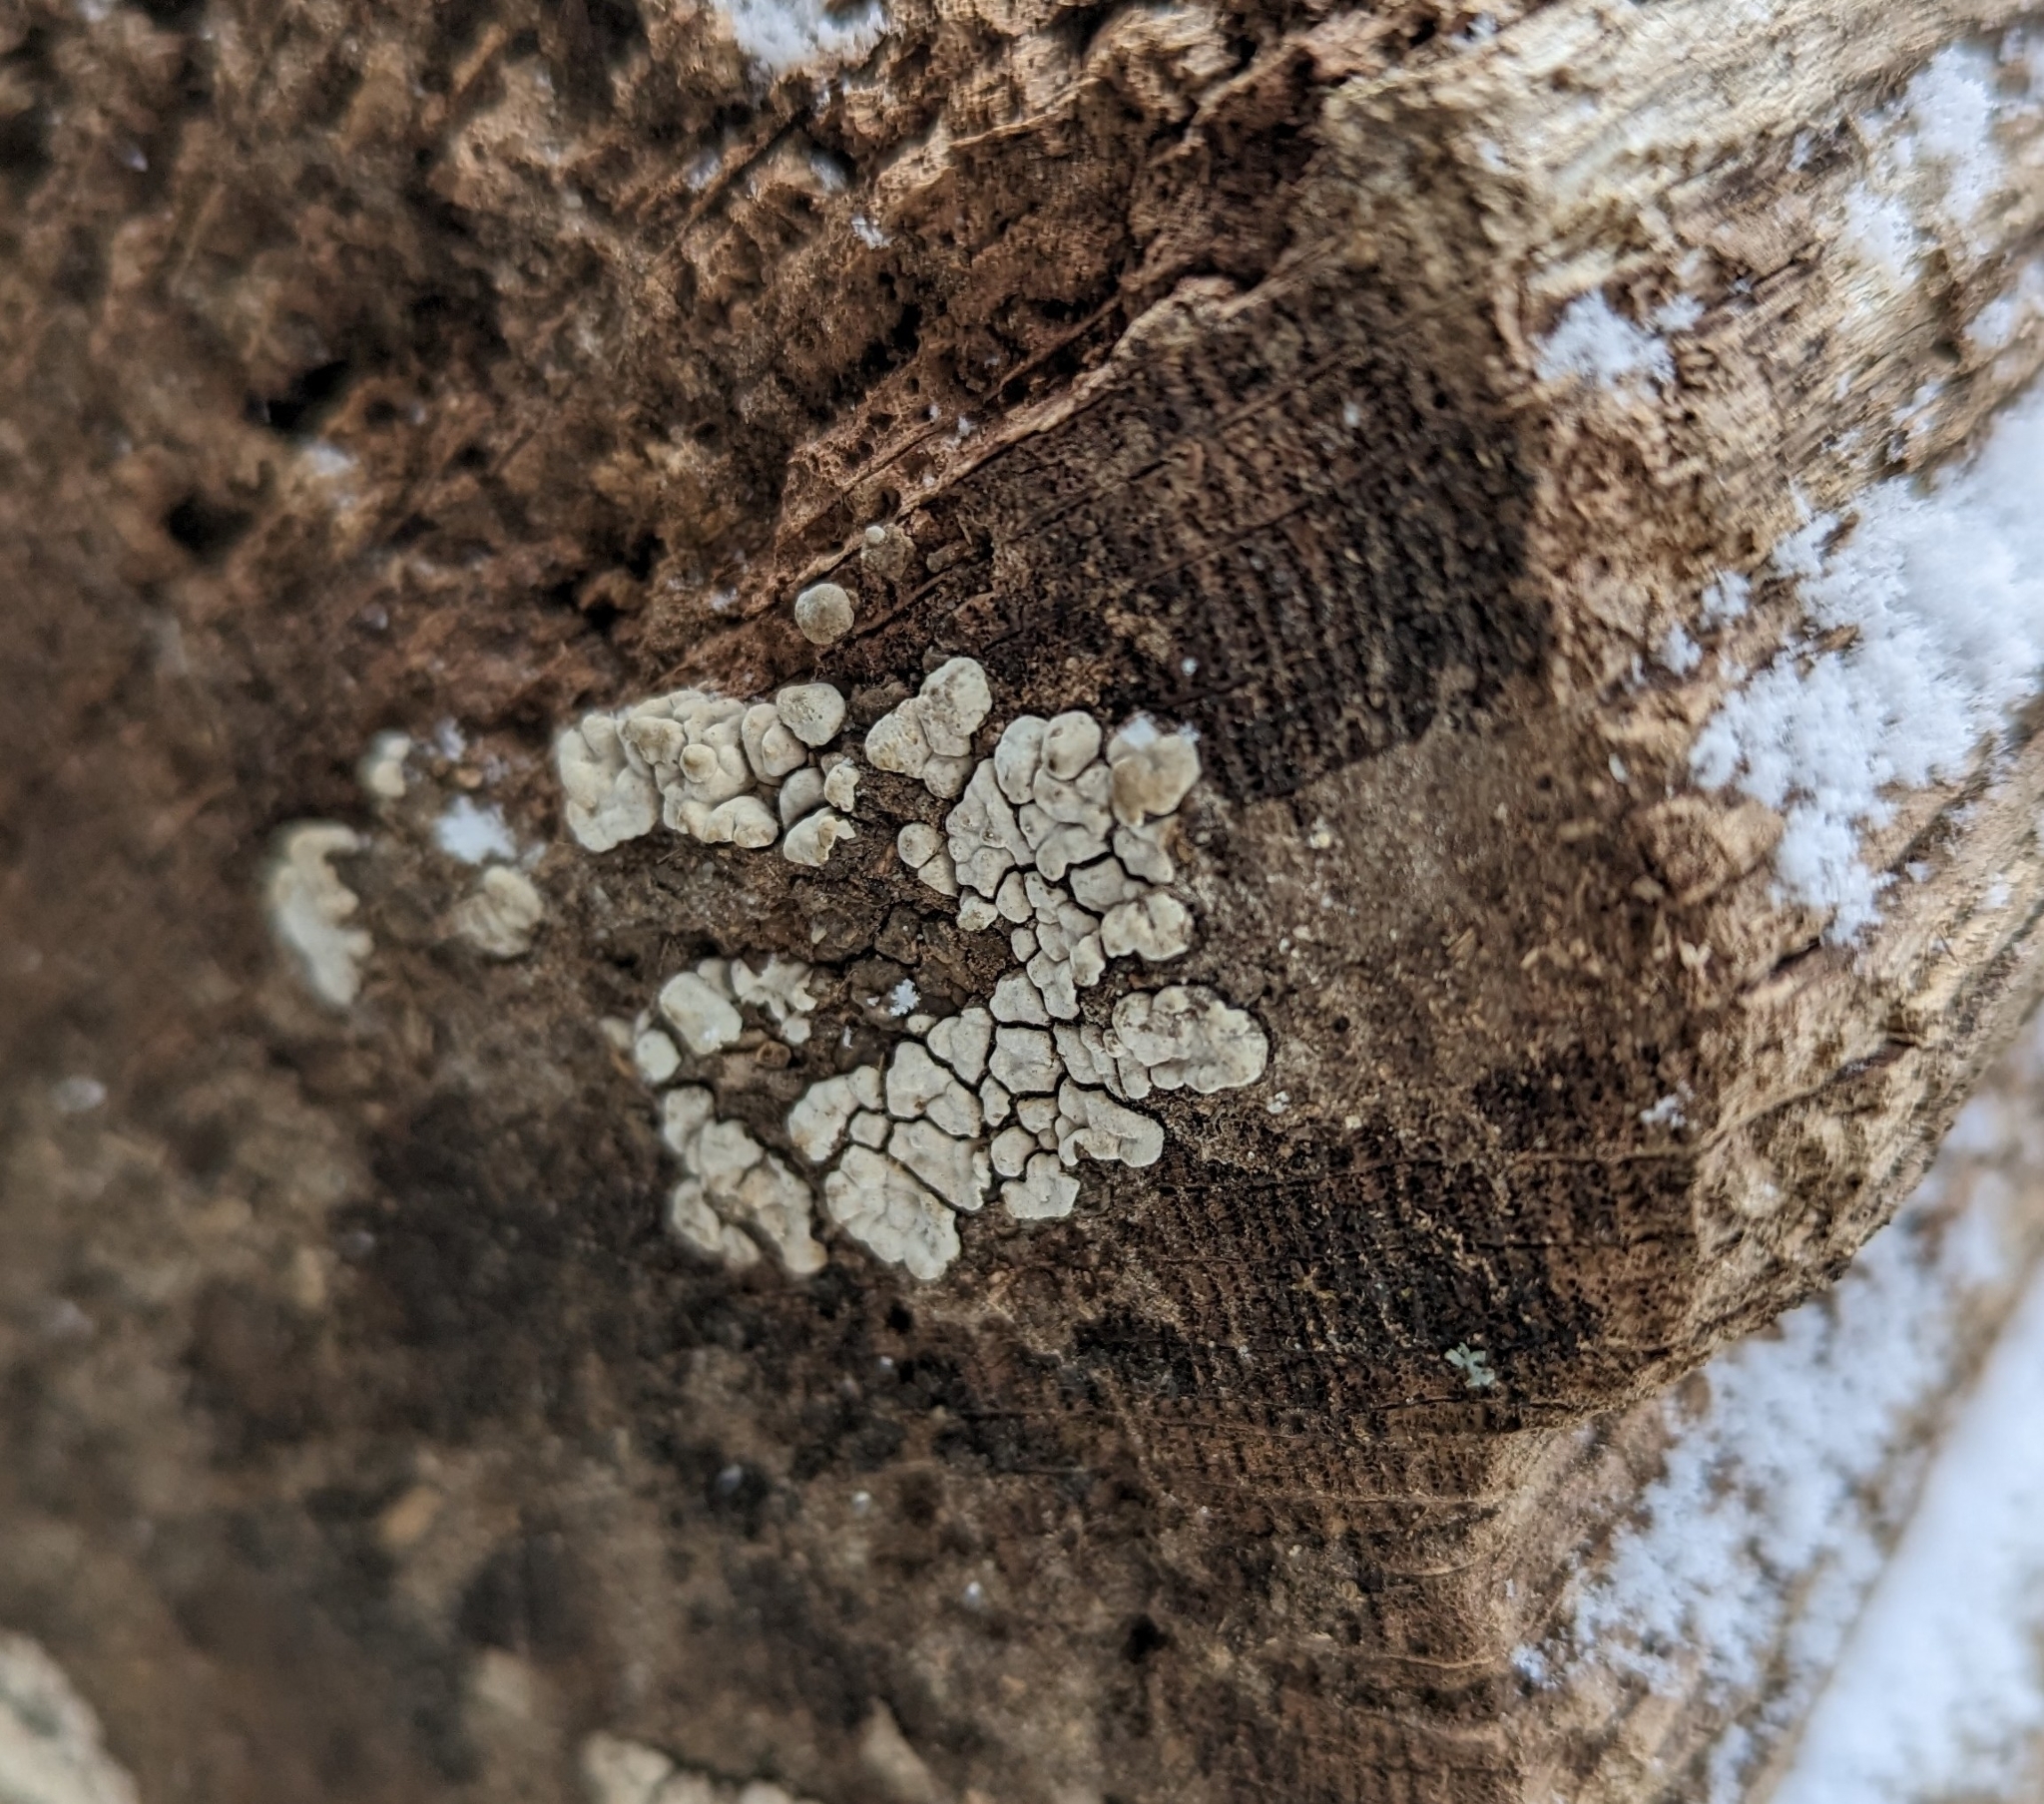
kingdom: Fungi
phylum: Basidiomycota
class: Agaricomycetes
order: Russulales
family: Stereaceae
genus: Xylobolus
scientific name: Xylobolus frustulatus
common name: Ceramic parchment
